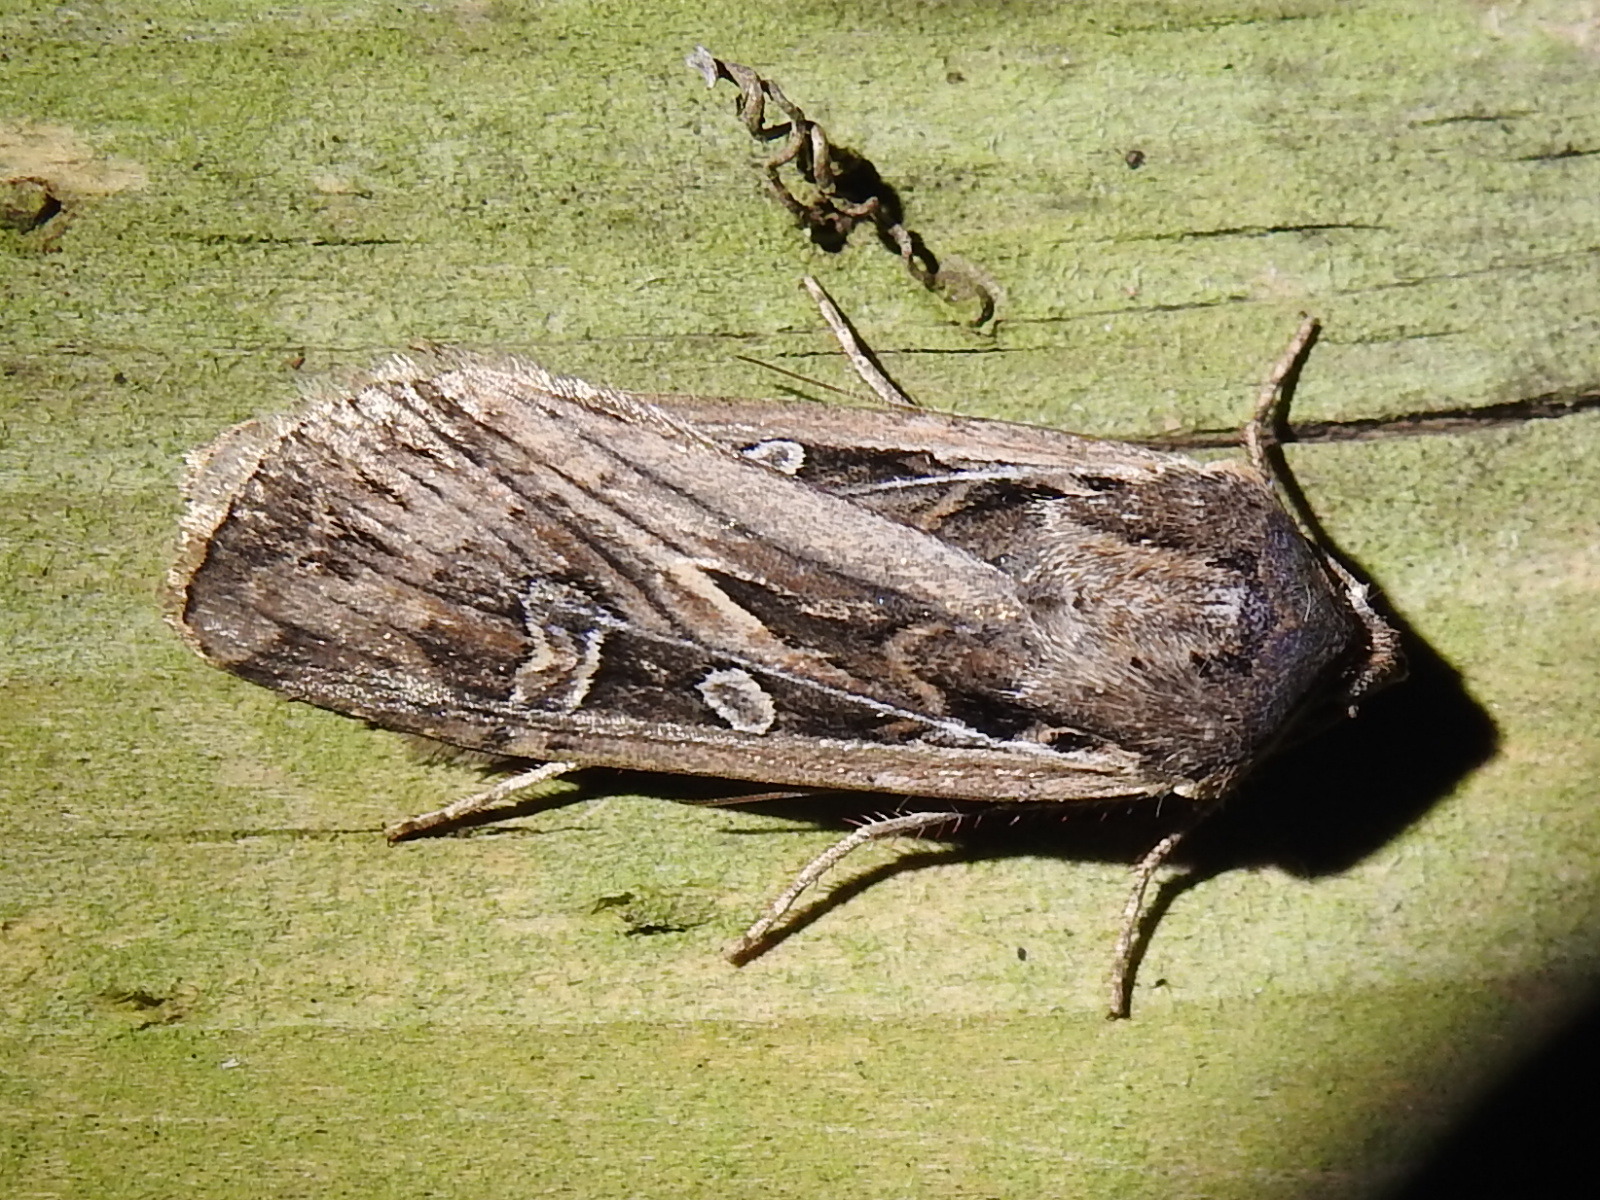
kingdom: Animalia
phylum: Arthropoda
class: Insecta
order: Lepidoptera
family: Noctuidae
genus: Euxoa
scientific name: Euxoa auxiliaris
